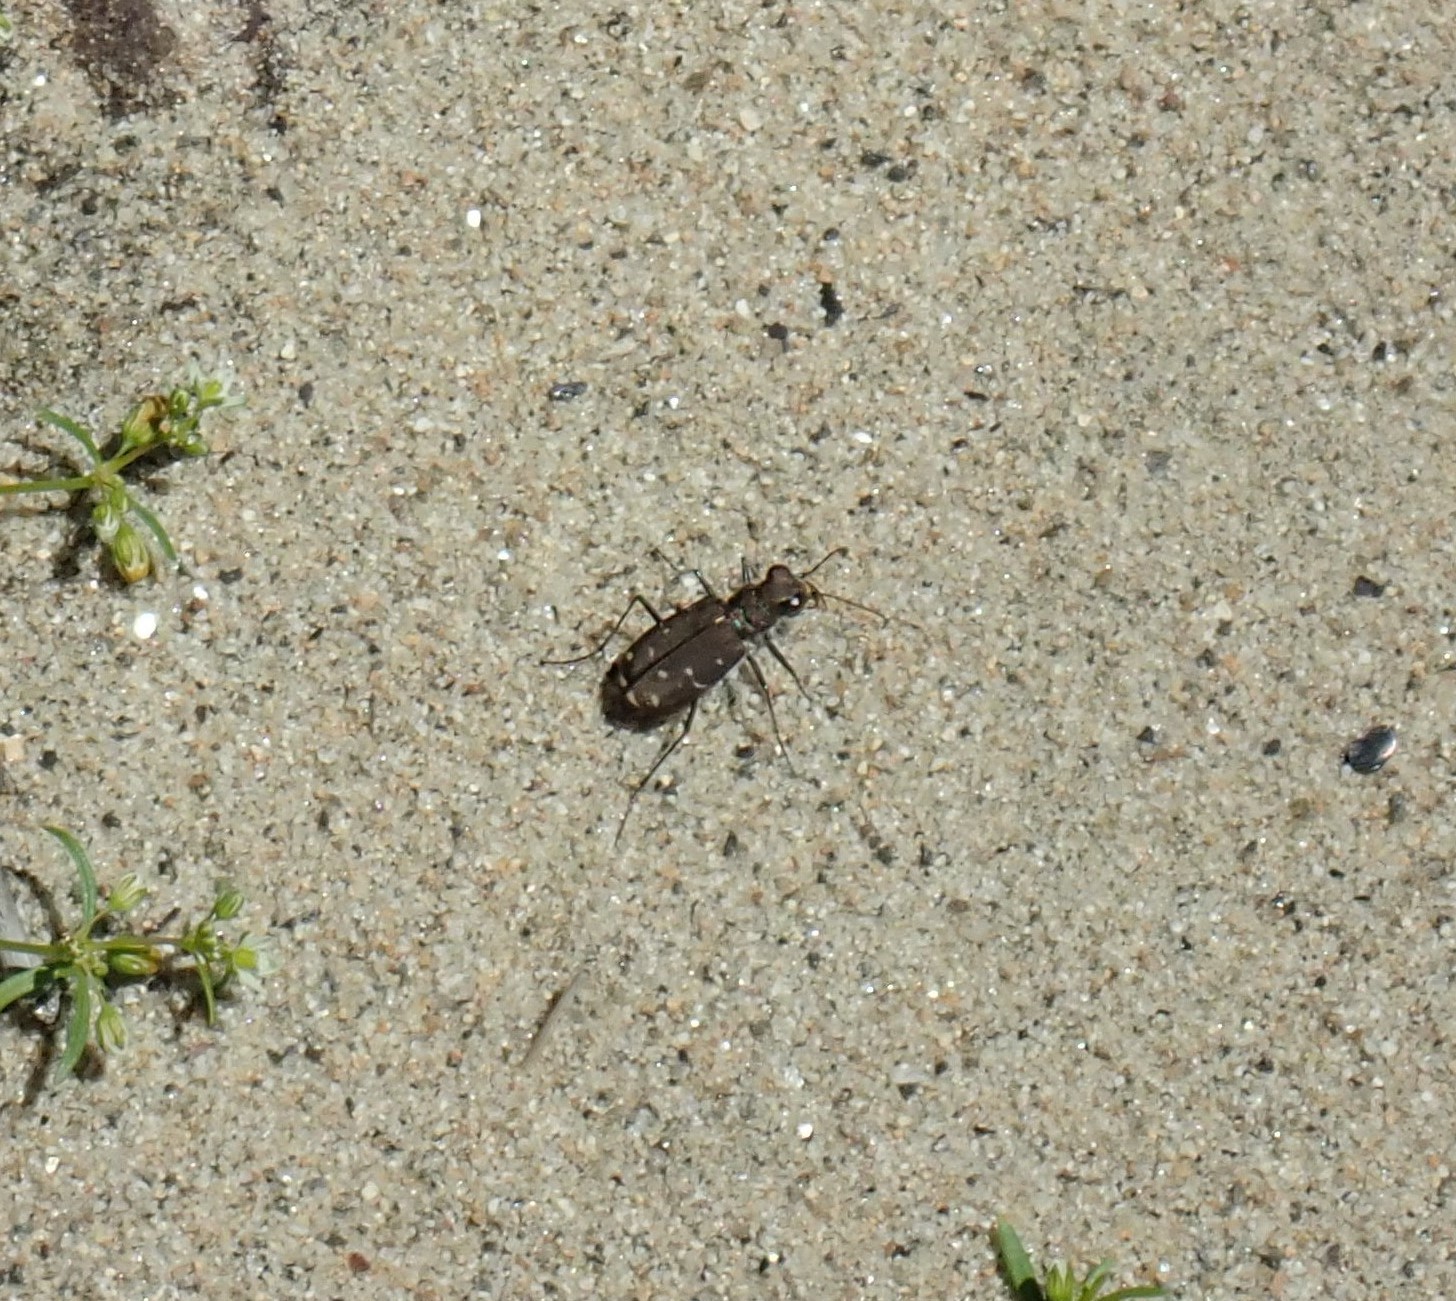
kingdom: Animalia
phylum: Arthropoda
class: Insecta
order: Coleoptera
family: Carabidae
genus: Cicindela
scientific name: Cicindela duodecimguttata
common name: Twelve-spotted tiger beetle
